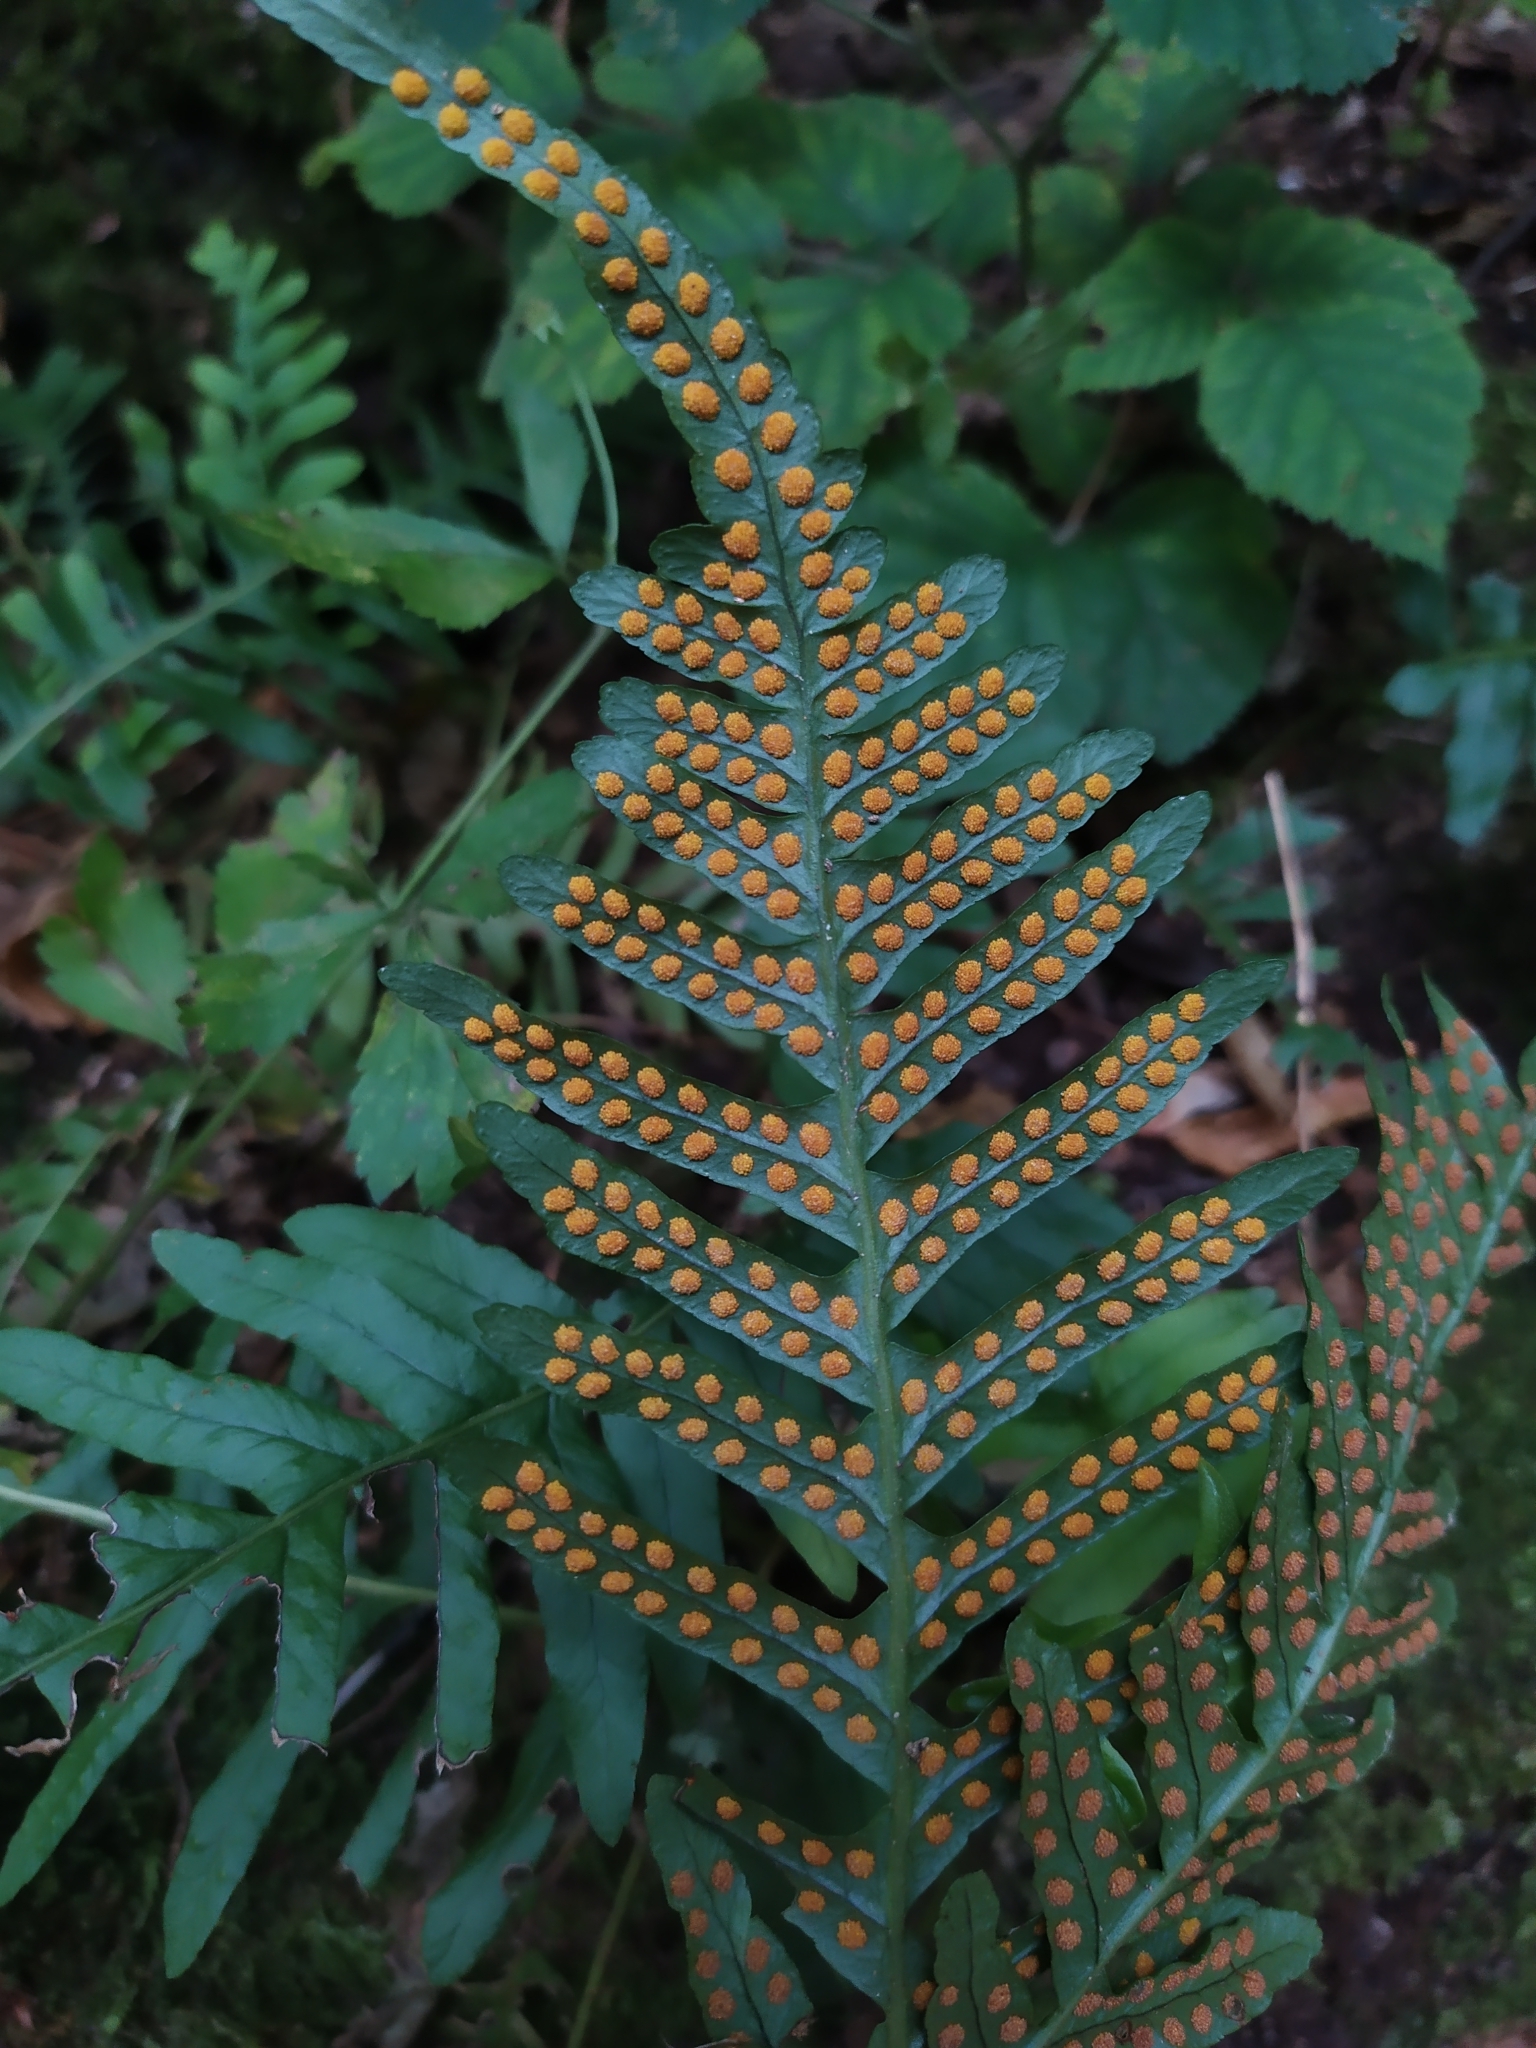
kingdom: Plantae
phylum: Tracheophyta
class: Polypodiopsida
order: Polypodiales
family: Polypodiaceae
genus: Polypodium
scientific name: Polypodium vulgare
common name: Common polypody
